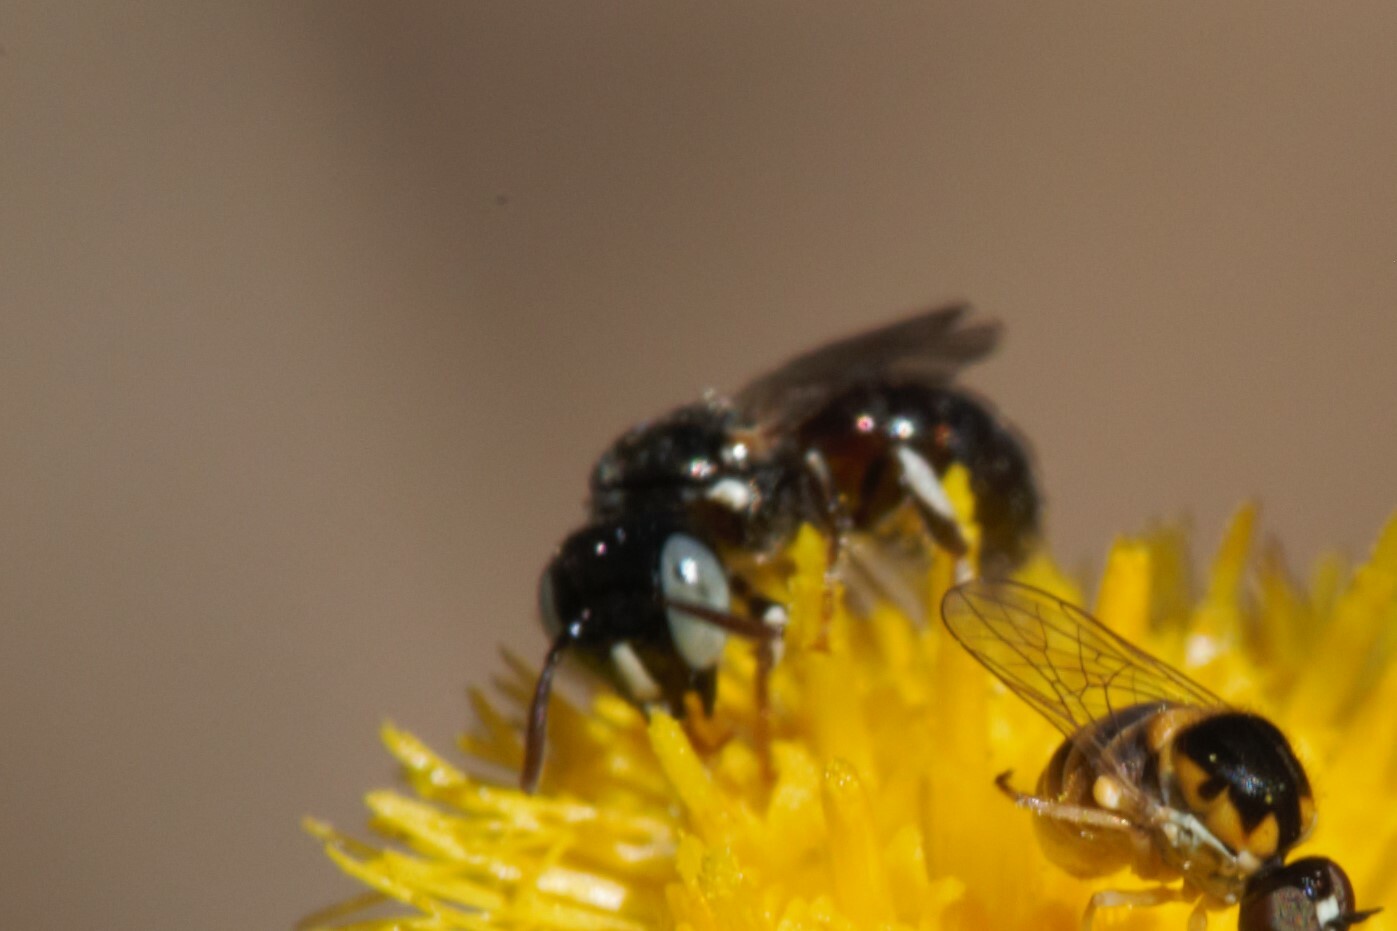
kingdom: Animalia
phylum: Arthropoda
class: Insecta
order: Hymenoptera
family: Apidae
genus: Ceratina
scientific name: Ceratina australensis
